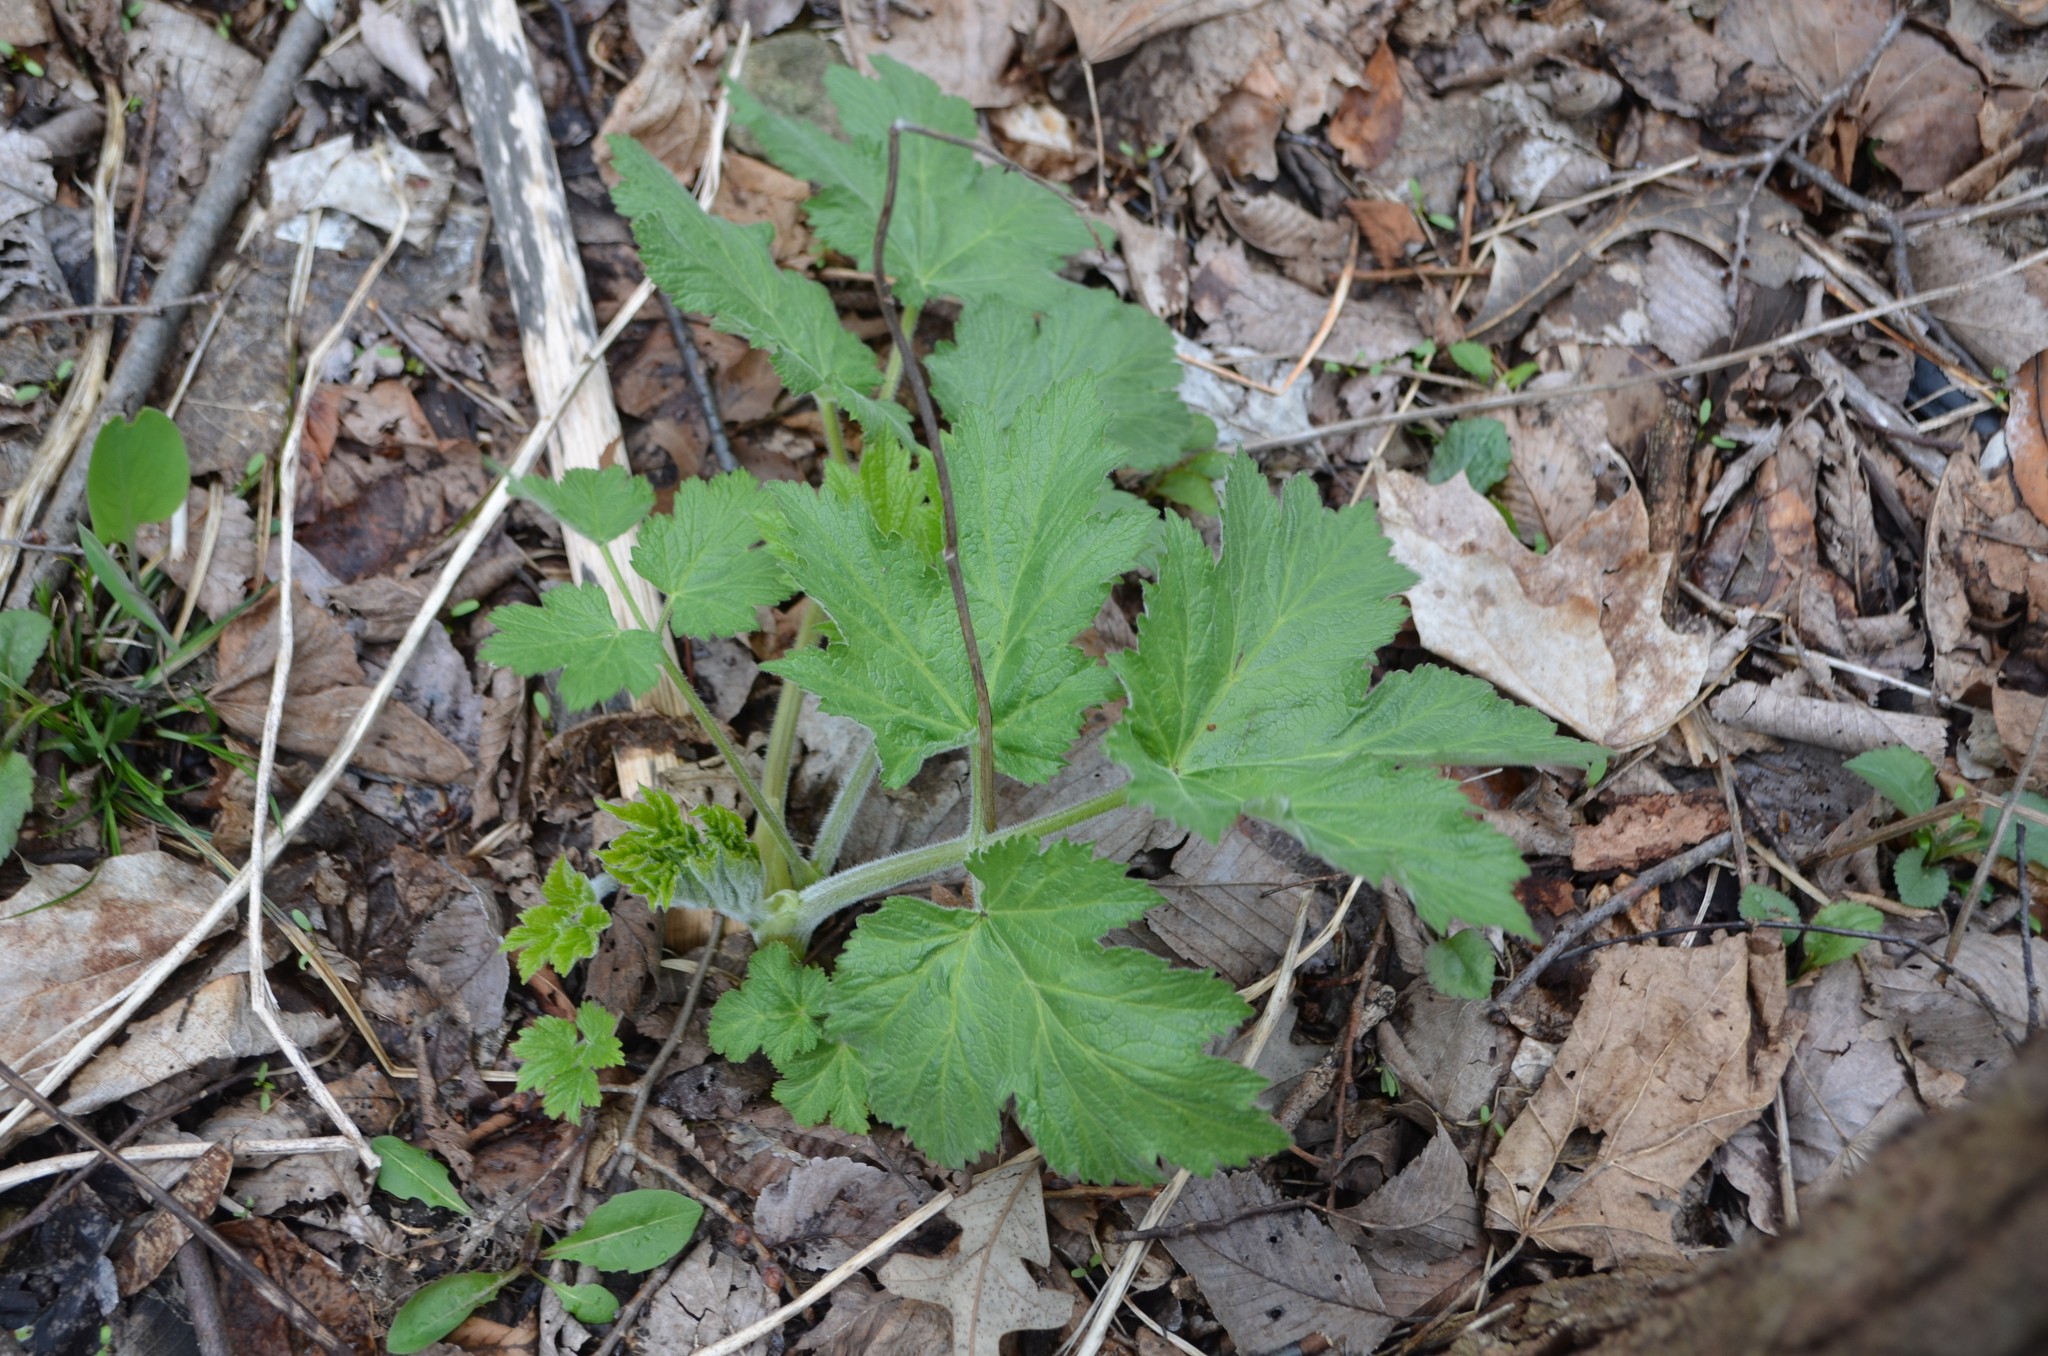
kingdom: Plantae
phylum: Tracheophyta
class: Magnoliopsida
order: Apiales
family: Apiaceae
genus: Heracleum
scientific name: Heracleum maximum
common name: American cow parsnip
